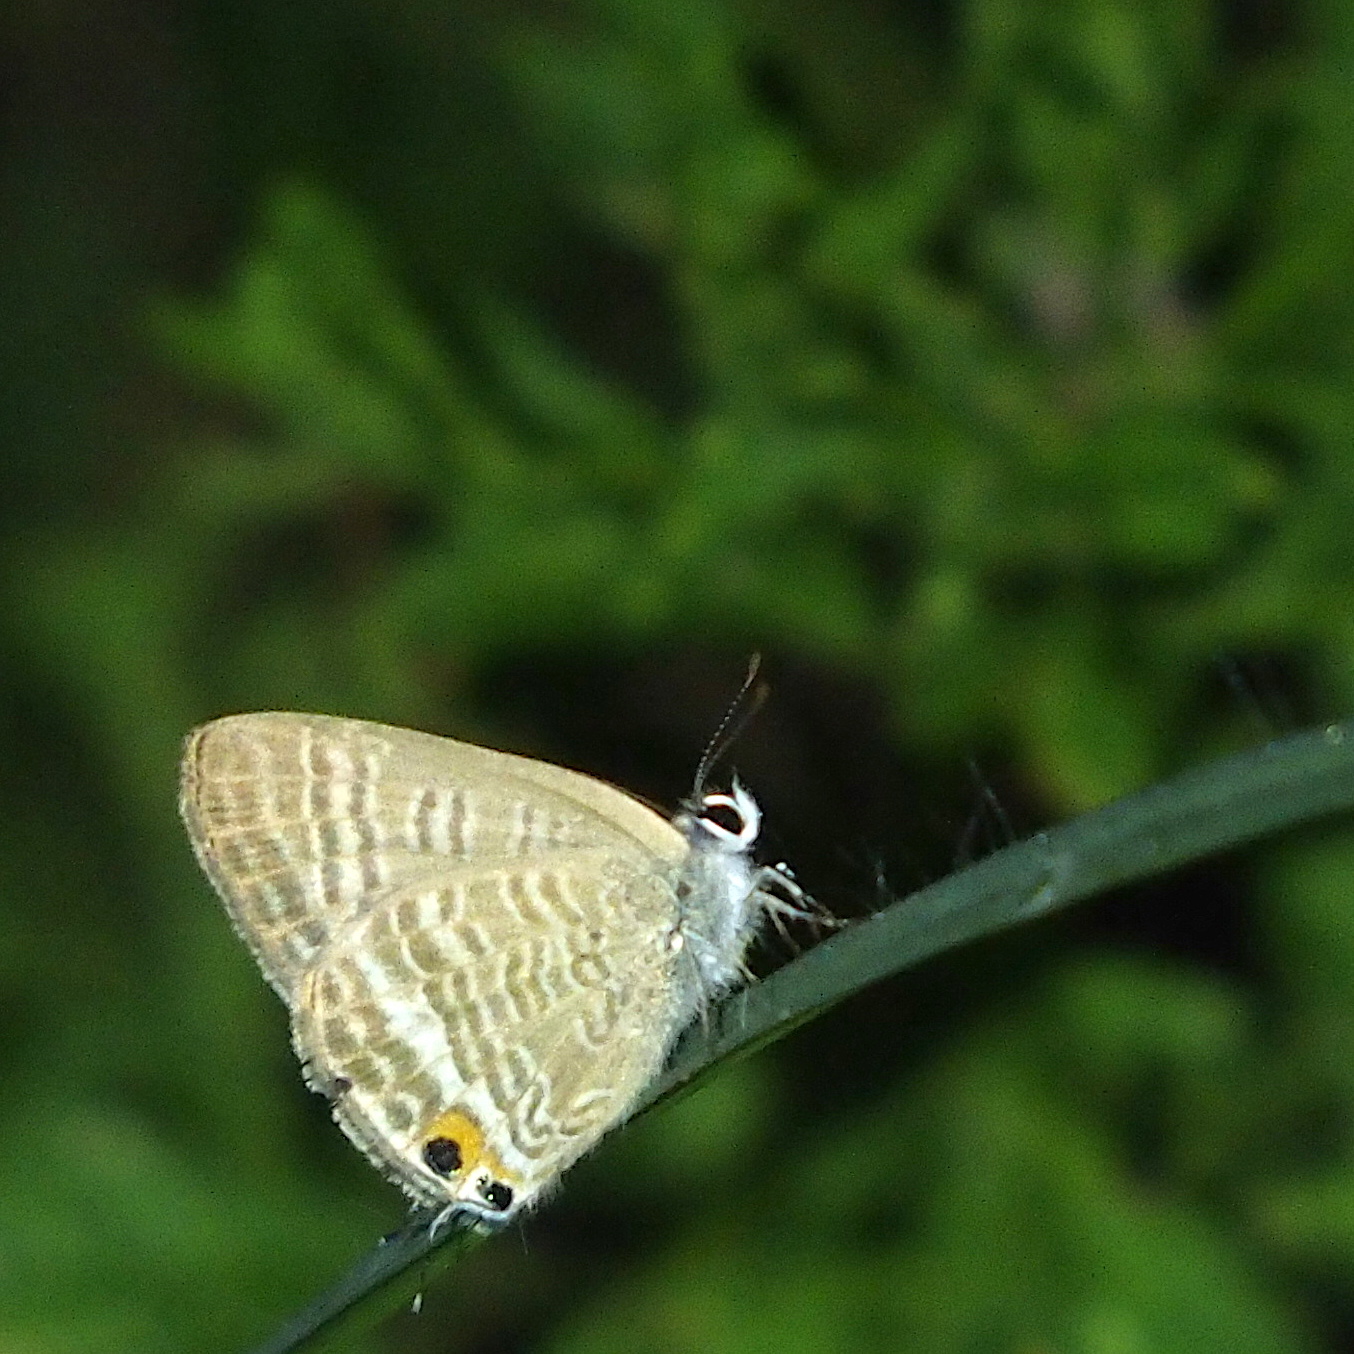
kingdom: Animalia
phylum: Arthropoda
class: Insecta
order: Lepidoptera
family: Lycaenidae
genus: Lampides
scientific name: Lampides boeticus
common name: Long-tailed blue
